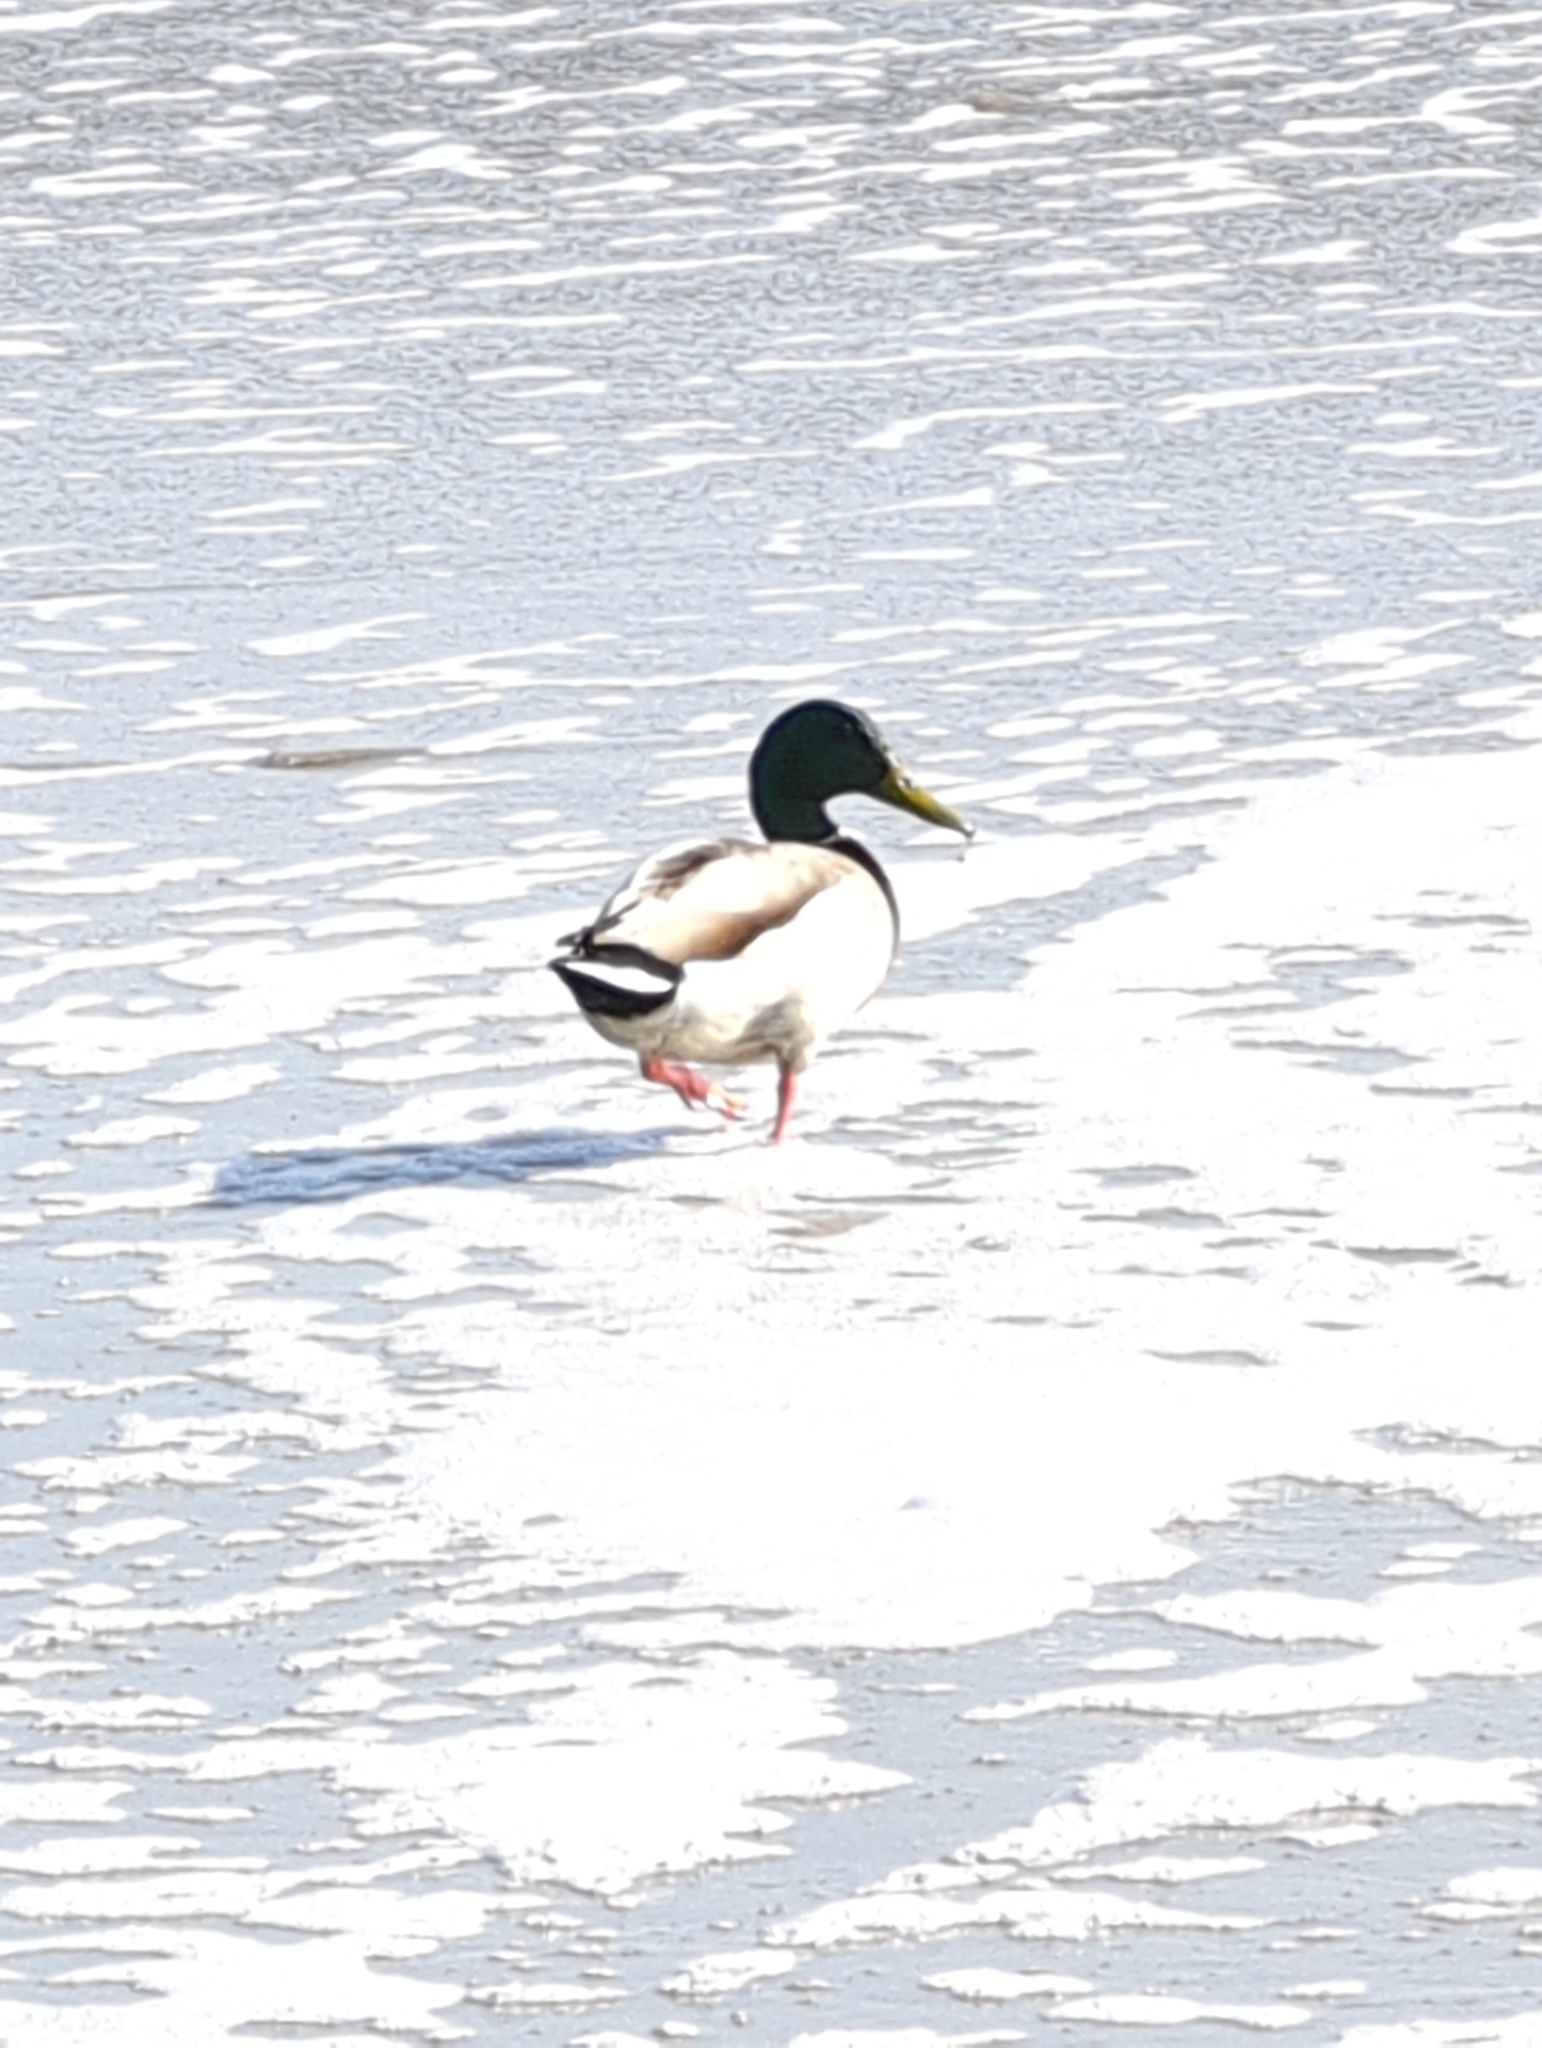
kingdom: Animalia
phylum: Chordata
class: Aves
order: Anseriformes
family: Anatidae
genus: Anas
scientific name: Anas platyrhynchos
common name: Mallard
